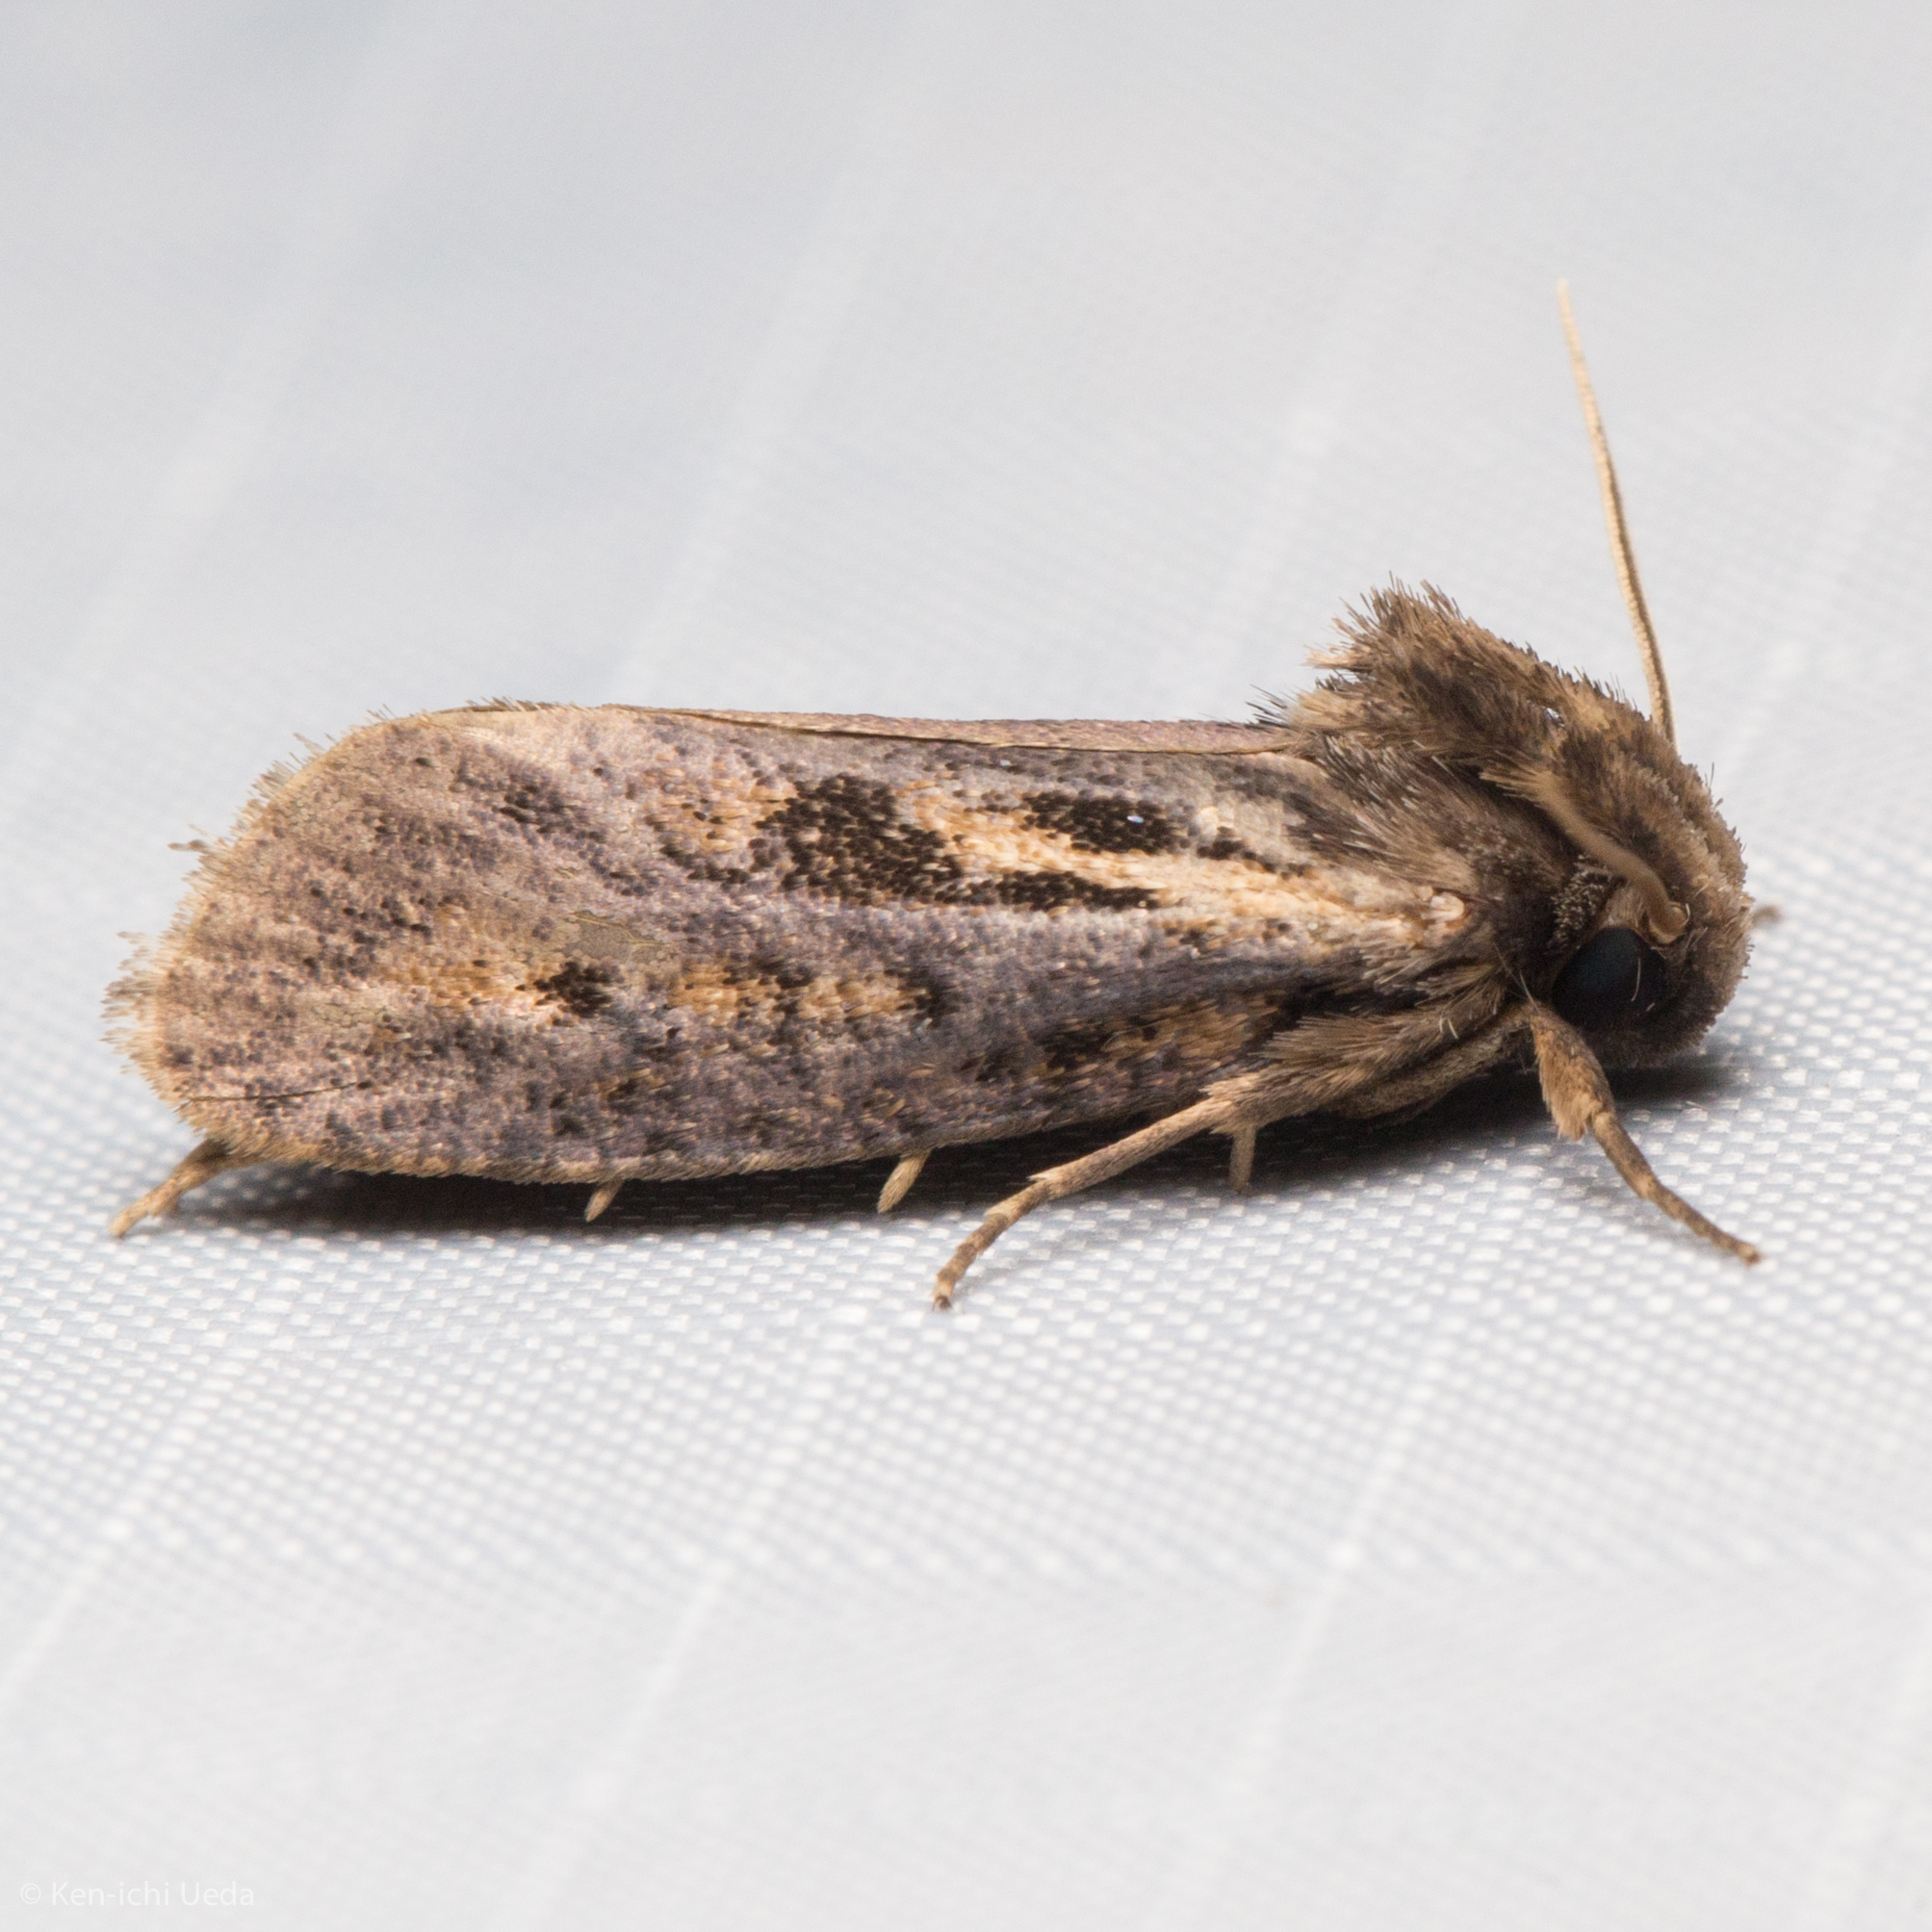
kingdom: Animalia
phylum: Arthropoda
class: Insecta
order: Lepidoptera
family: Tineidae
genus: Acrolophus
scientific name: Acrolophus popeanella
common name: Clemens' grass tubeworm moth
